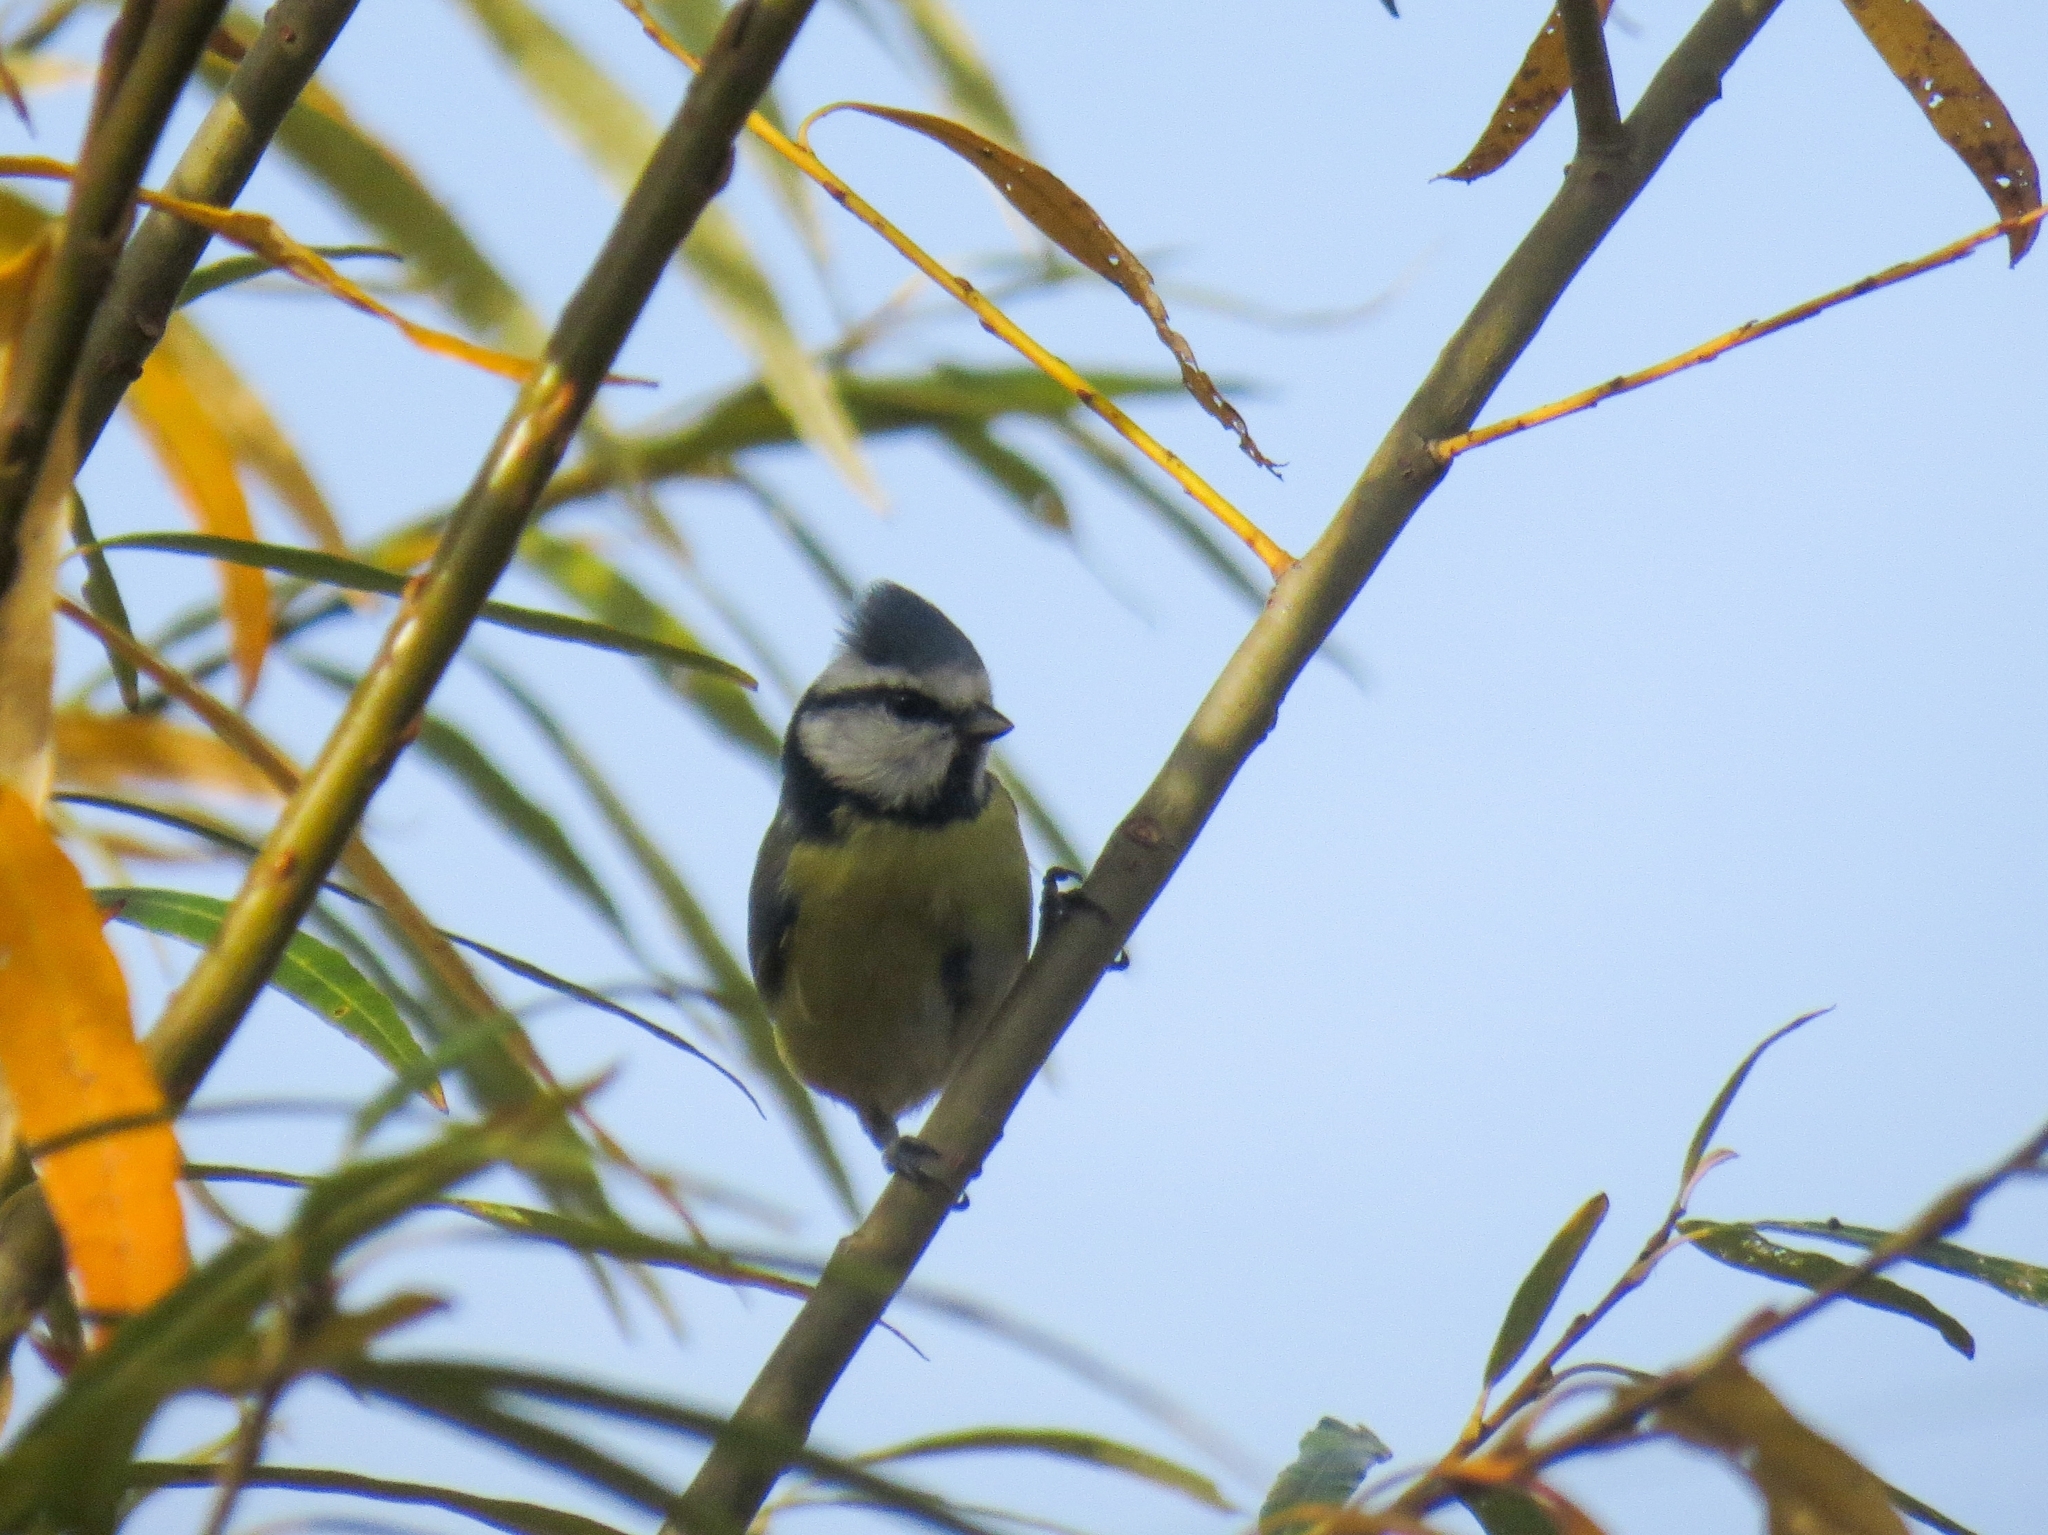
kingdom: Animalia
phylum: Chordata
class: Aves
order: Passeriformes
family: Paridae
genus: Cyanistes
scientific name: Cyanistes caeruleus
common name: Eurasian blue tit
